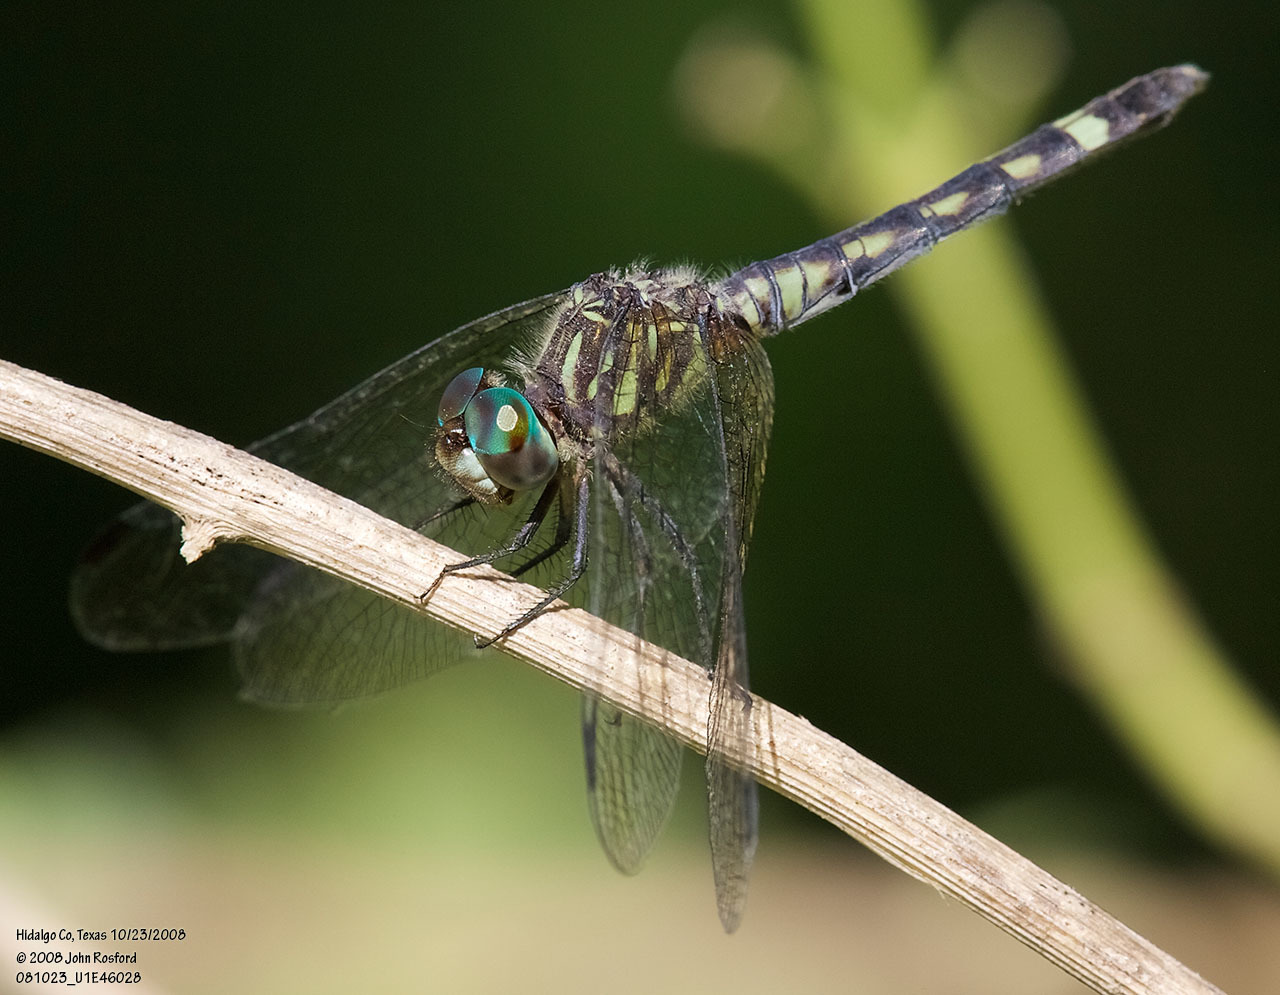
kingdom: Animalia
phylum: Arthropoda
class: Insecta
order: Odonata
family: Libellulidae
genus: Micrathyria
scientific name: Micrathyria hagenii
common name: Thornbush dasher
